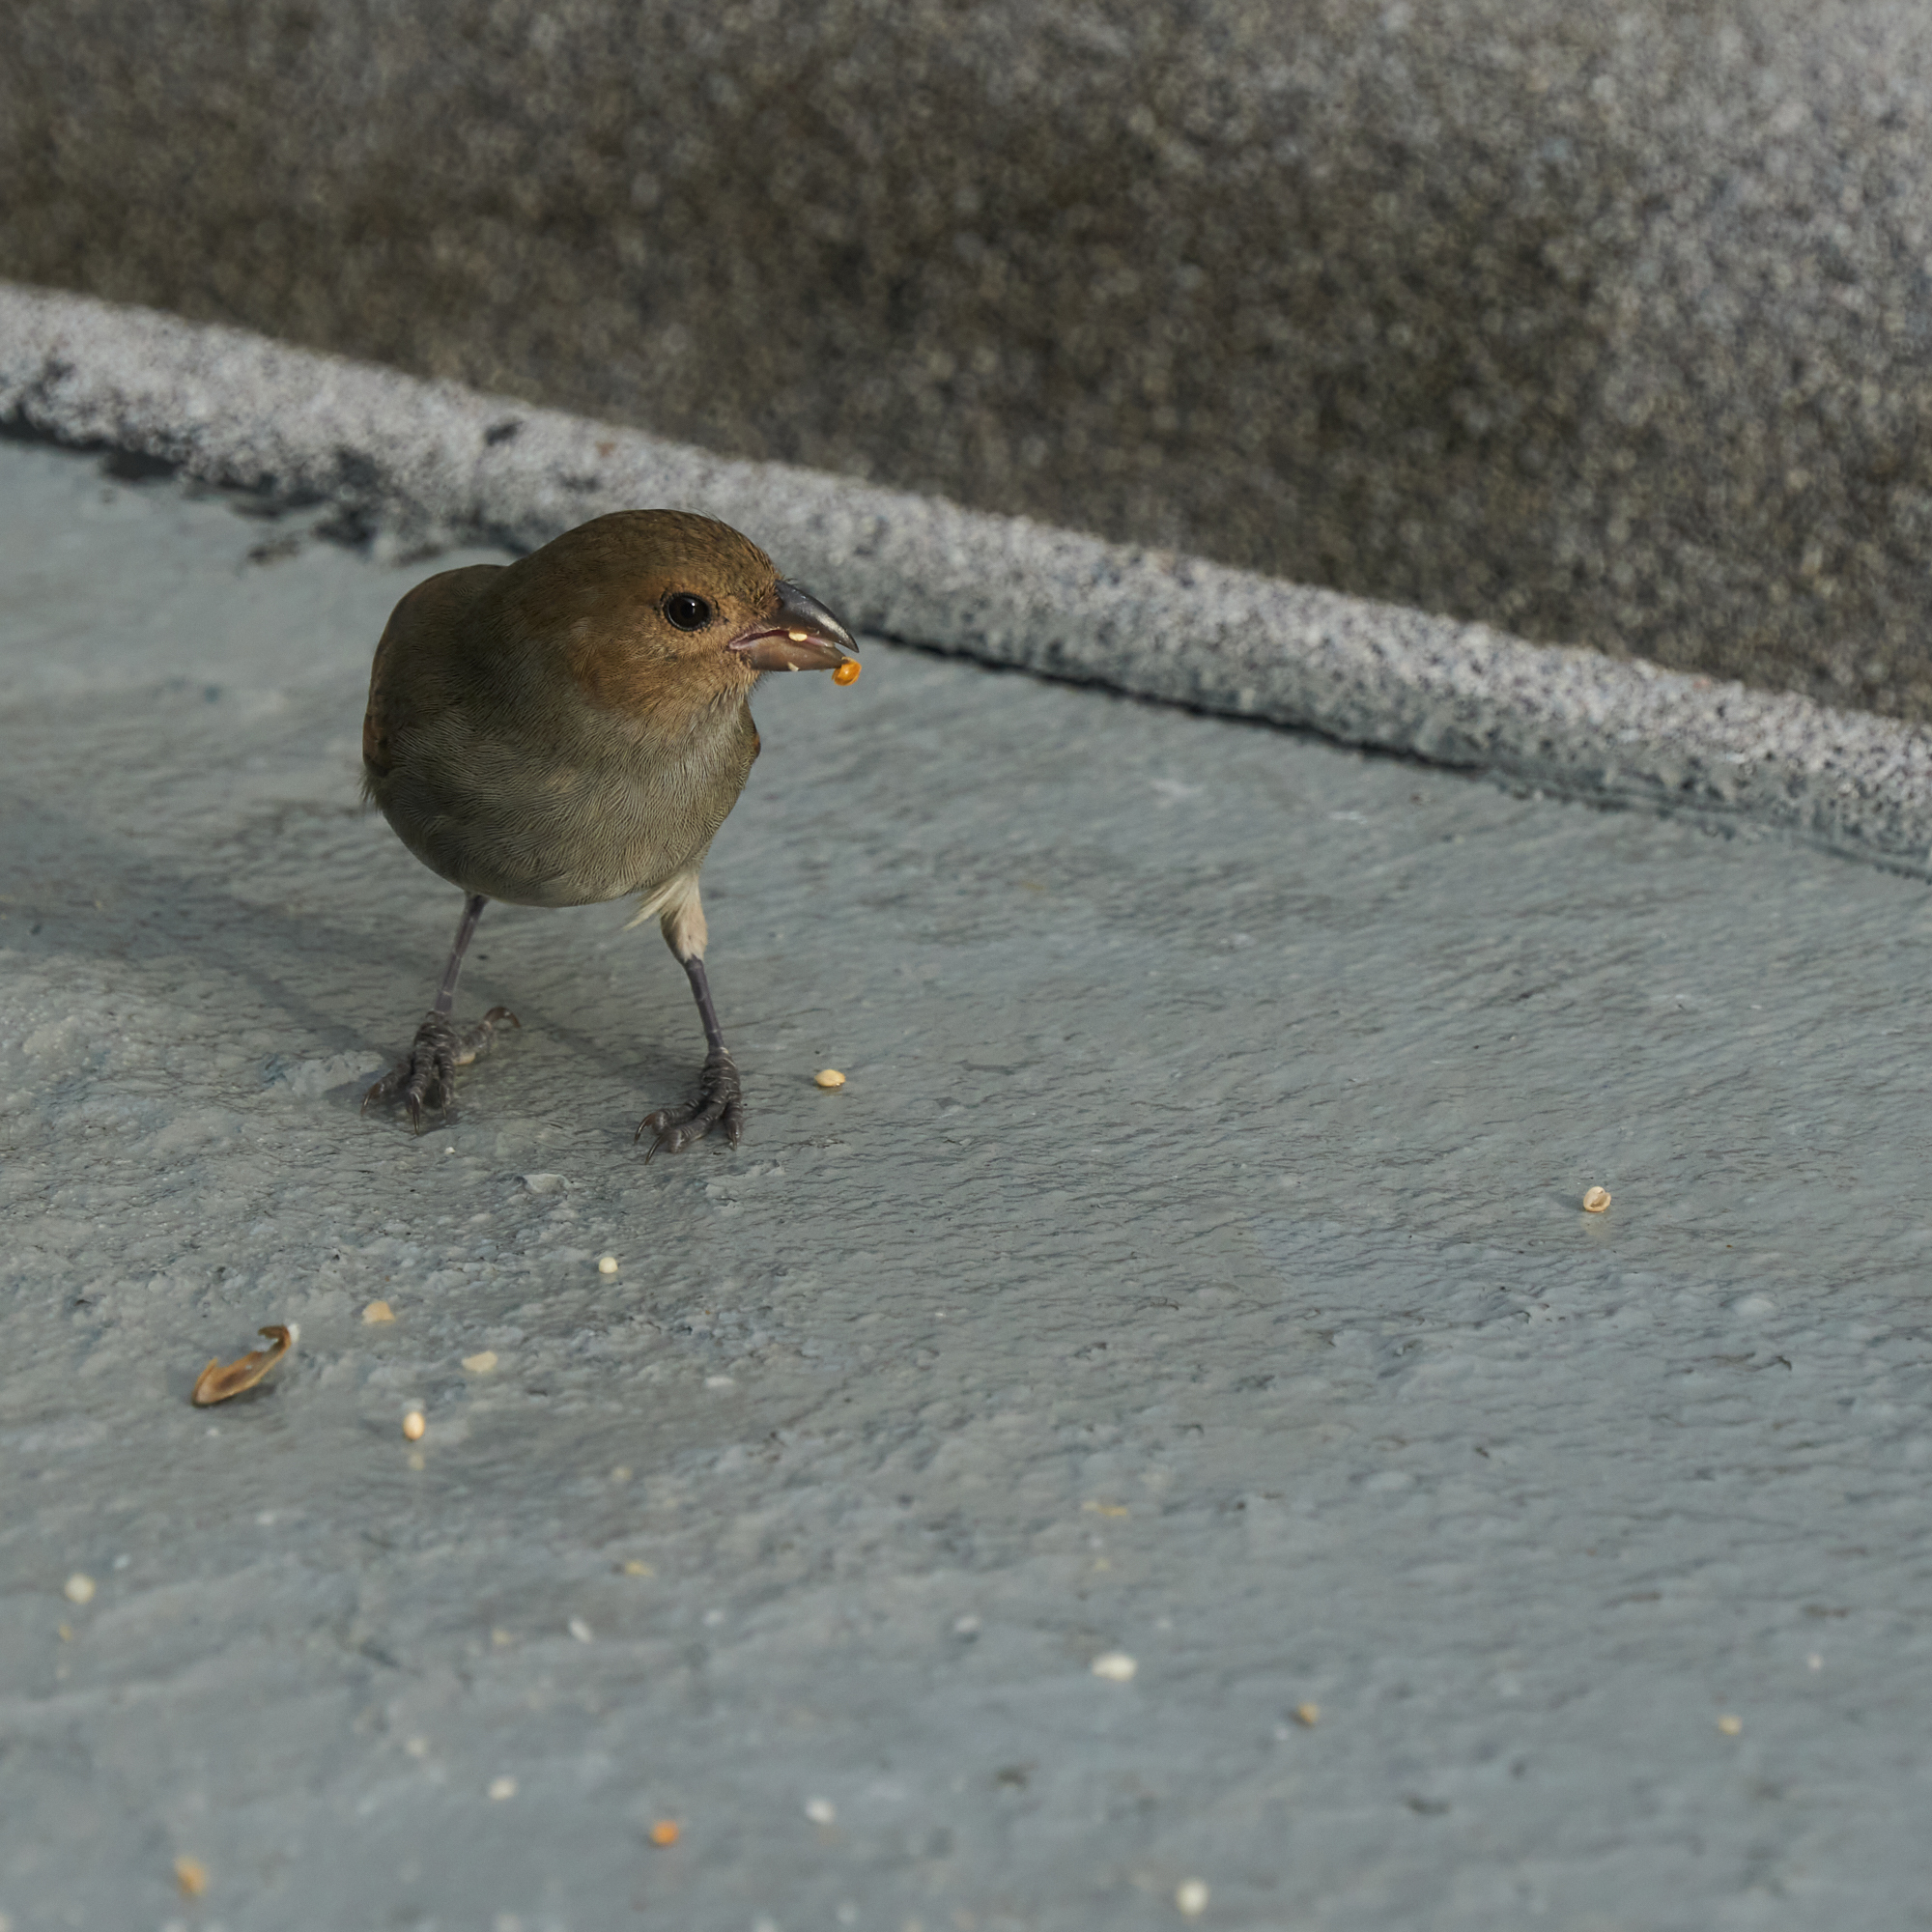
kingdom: Animalia
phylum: Chordata
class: Aves
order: Passeriformes
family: Thraupidae
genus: Loxigilla
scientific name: Loxigilla barbadensis
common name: Barbados bullfinch
